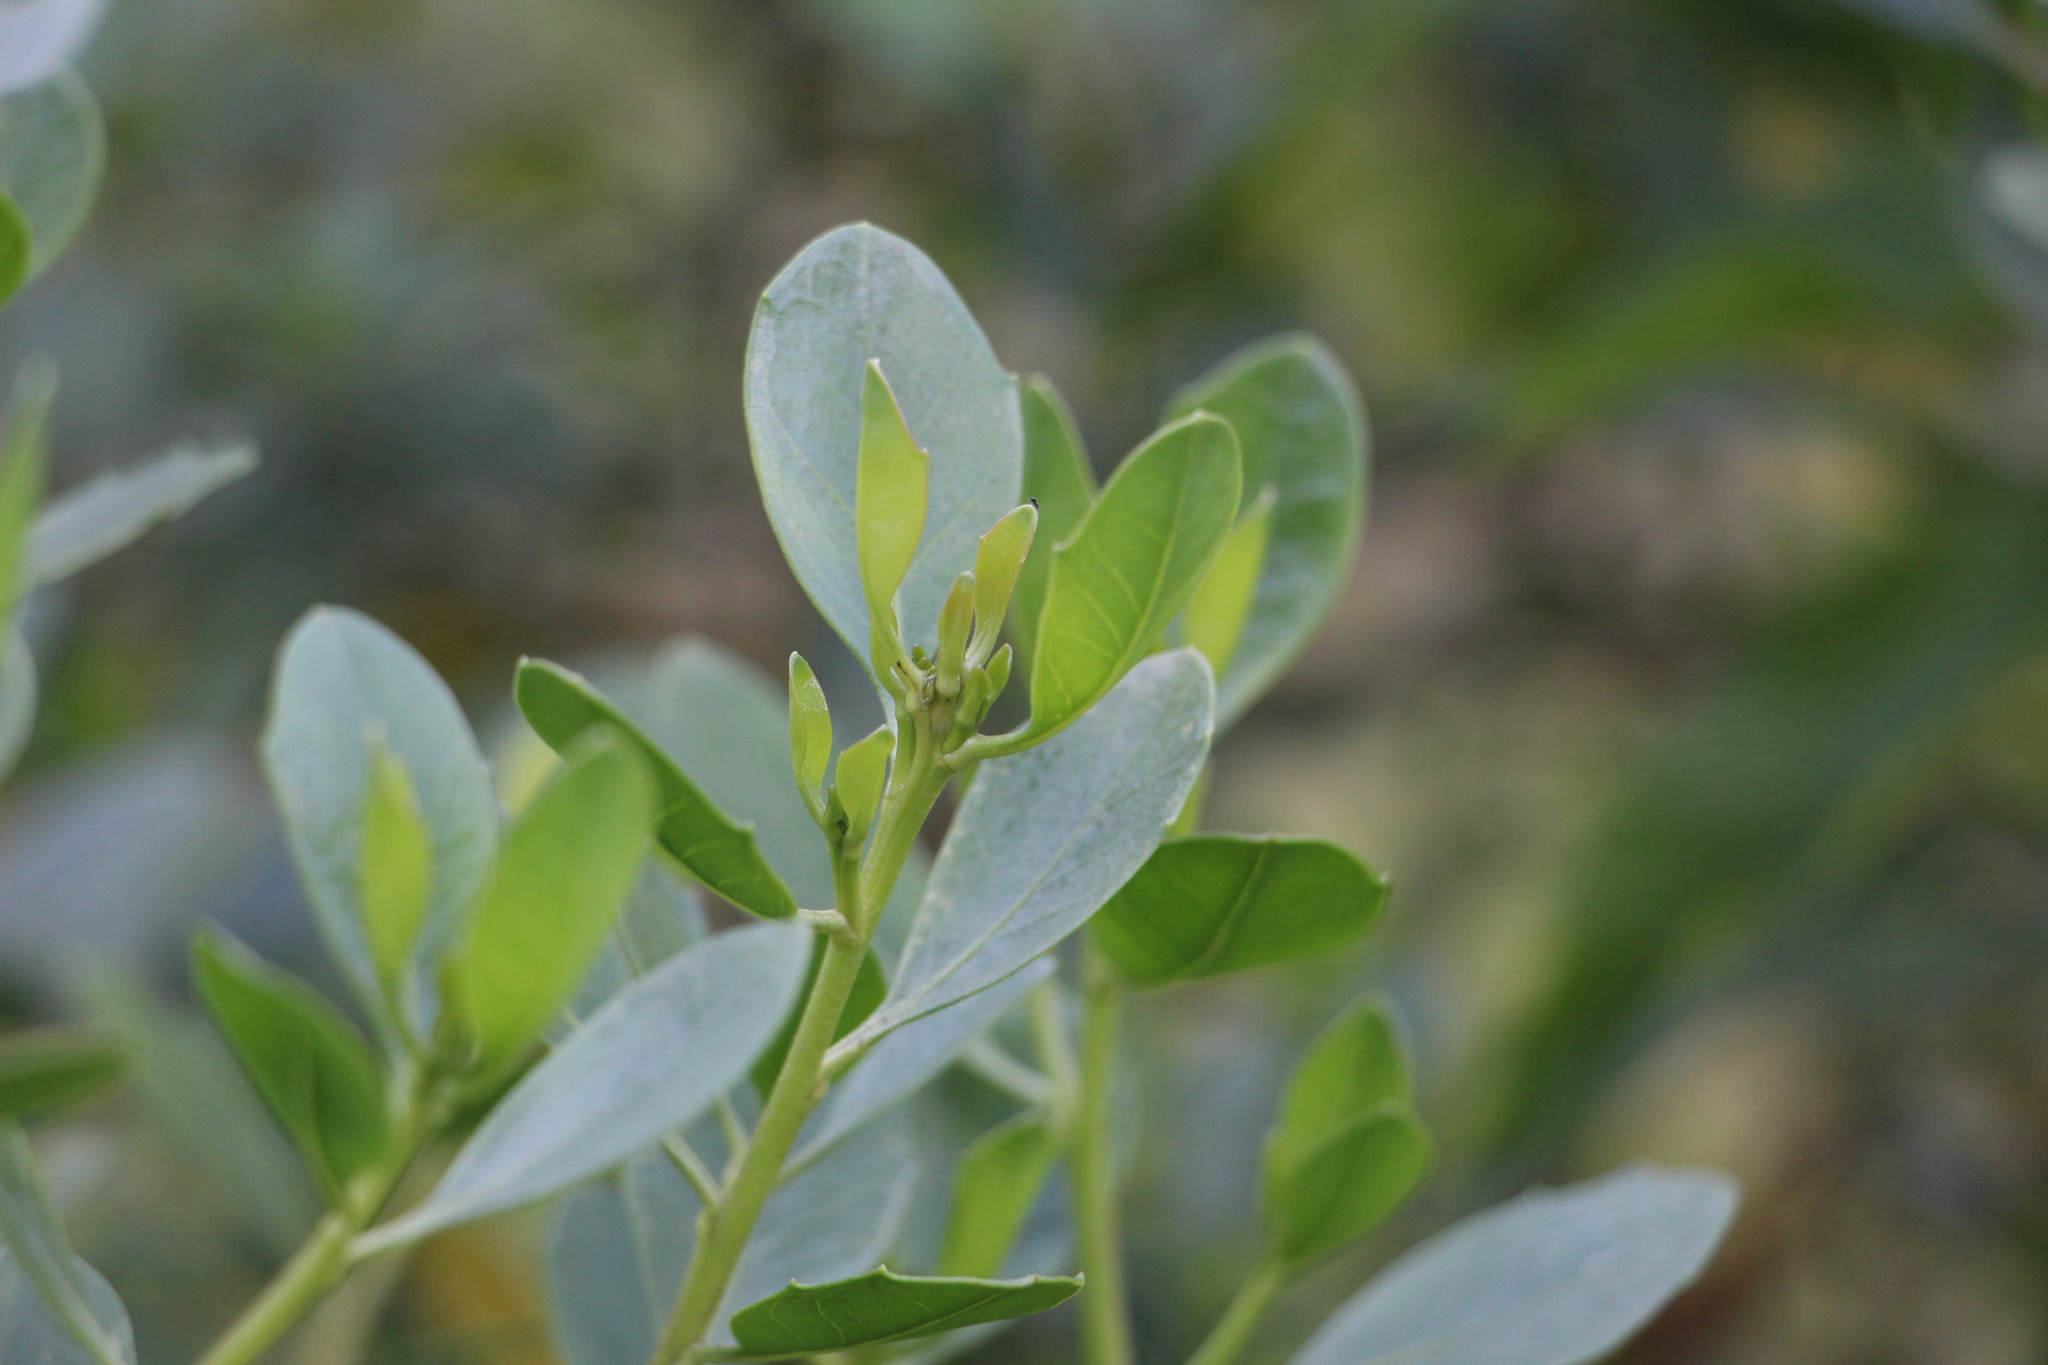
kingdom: Plantae
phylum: Tracheophyta
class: Magnoliopsida
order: Asterales
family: Asteraceae
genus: Baccharis
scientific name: Baccharis macrantha
